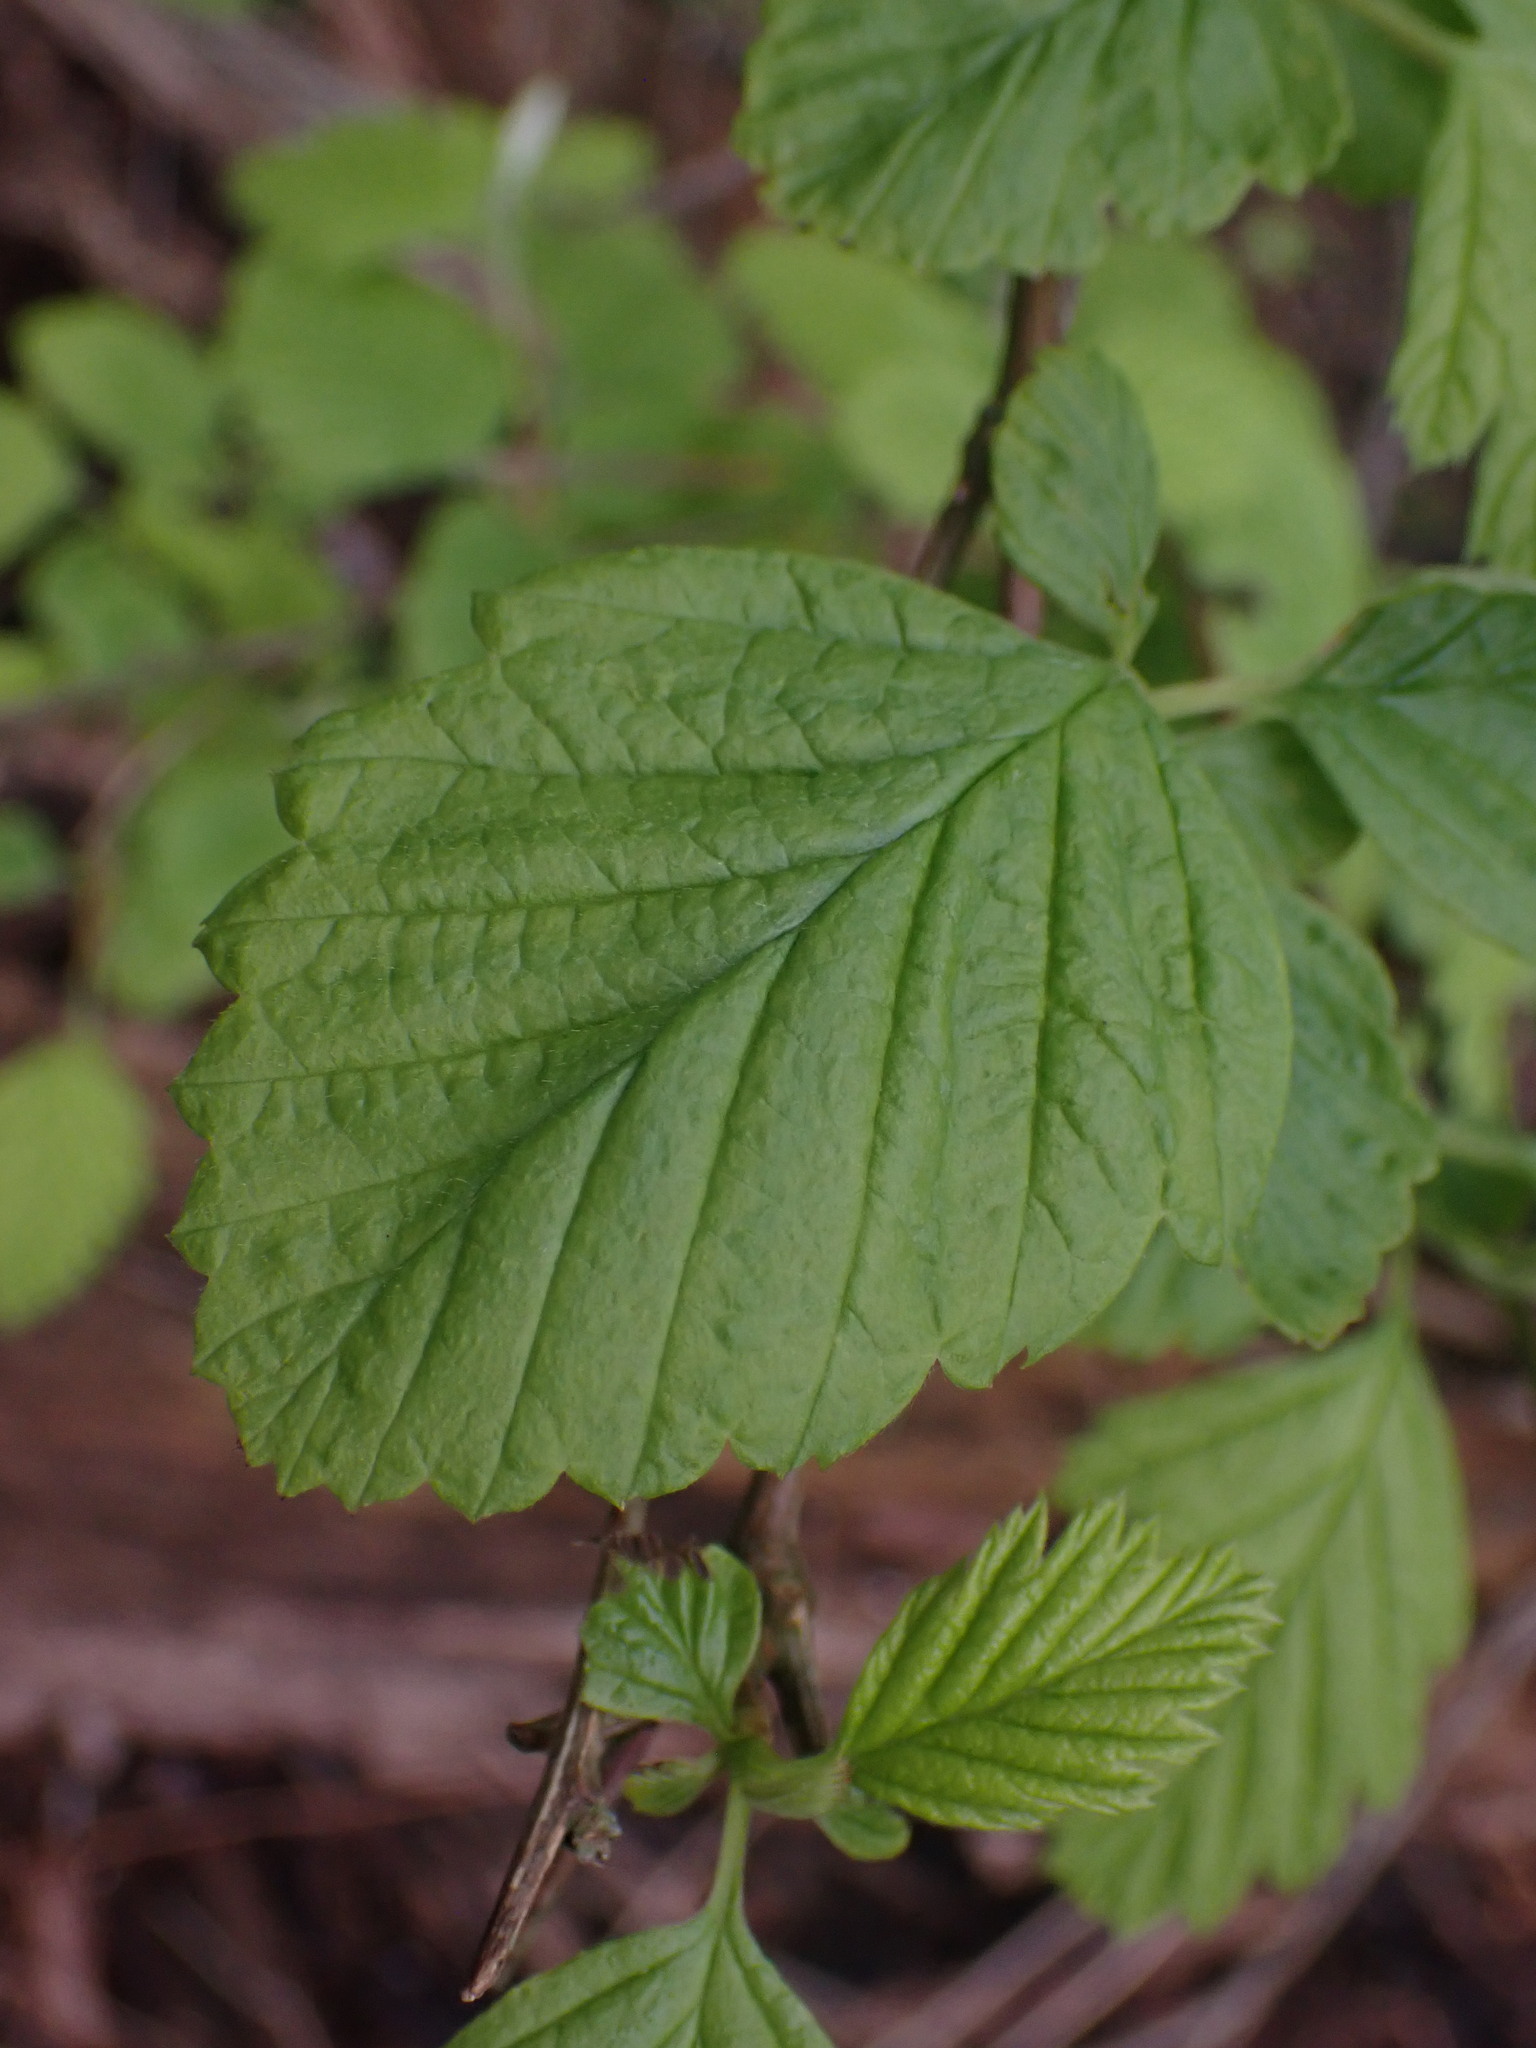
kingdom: Plantae
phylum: Tracheophyta
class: Magnoliopsida
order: Rosales
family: Rosaceae
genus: Holodiscus
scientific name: Holodiscus discolor
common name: Oceanspray
